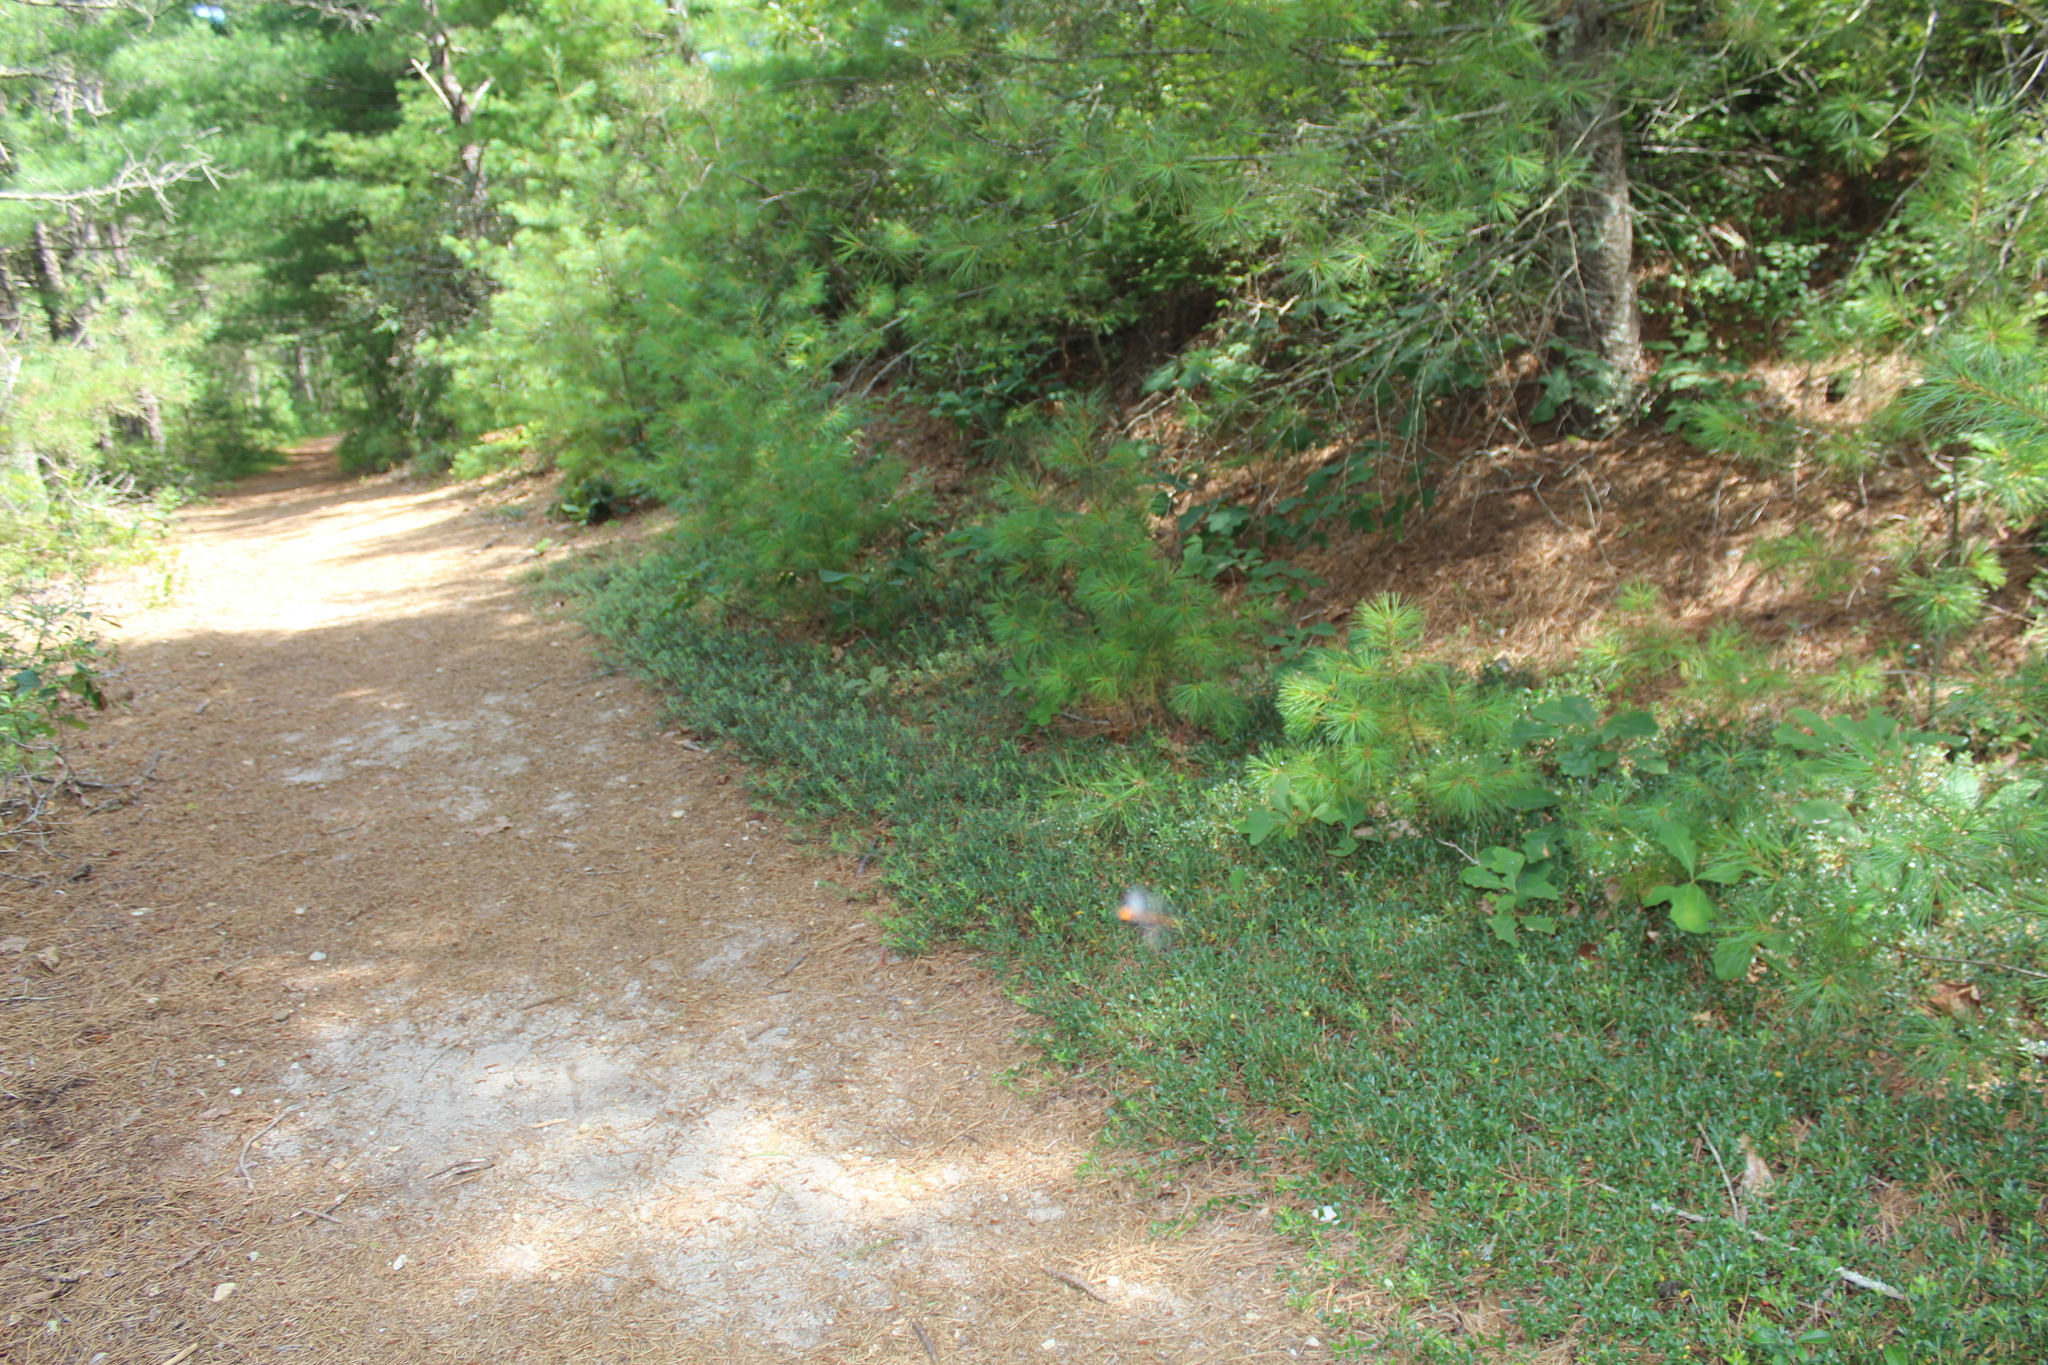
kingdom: Plantae
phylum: Tracheophyta
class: Magnoliopsida
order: Ericales
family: Ericaceae
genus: Arctostaphylos
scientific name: Arctostaphylos uva-ursi
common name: Bearberry
